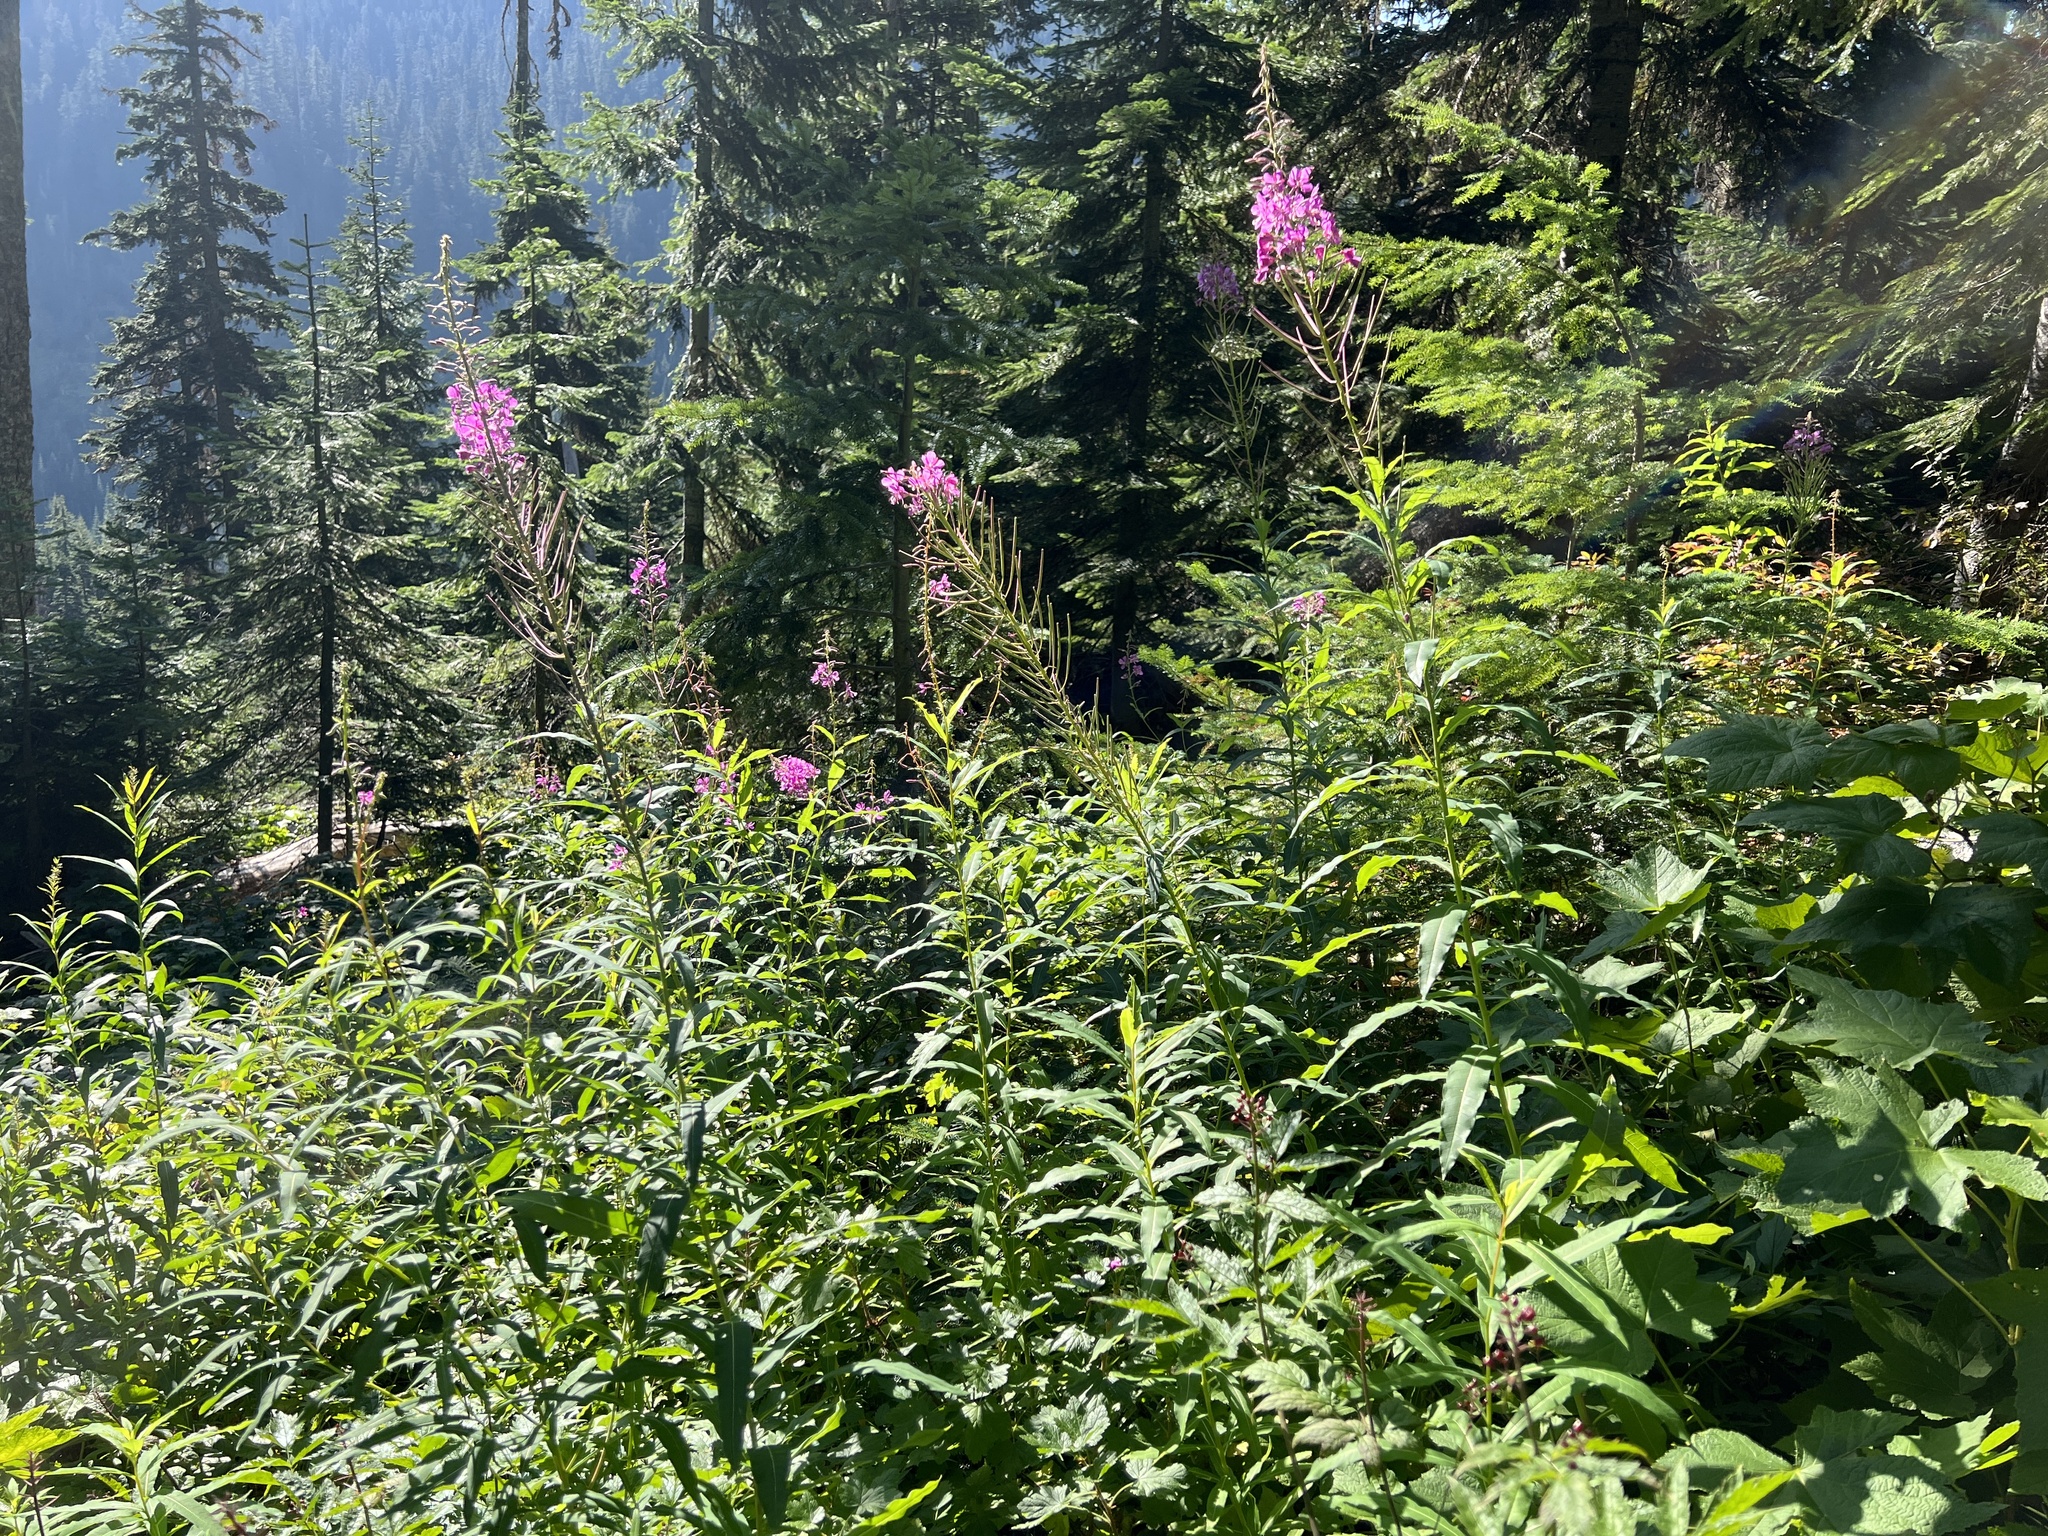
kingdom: Plantae
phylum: Tracheophyta
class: Magnoliopsida
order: Myrtales
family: Onagraceae
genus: Chamaenerion
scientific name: Chamaenerion angustifolium
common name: Fireweed
